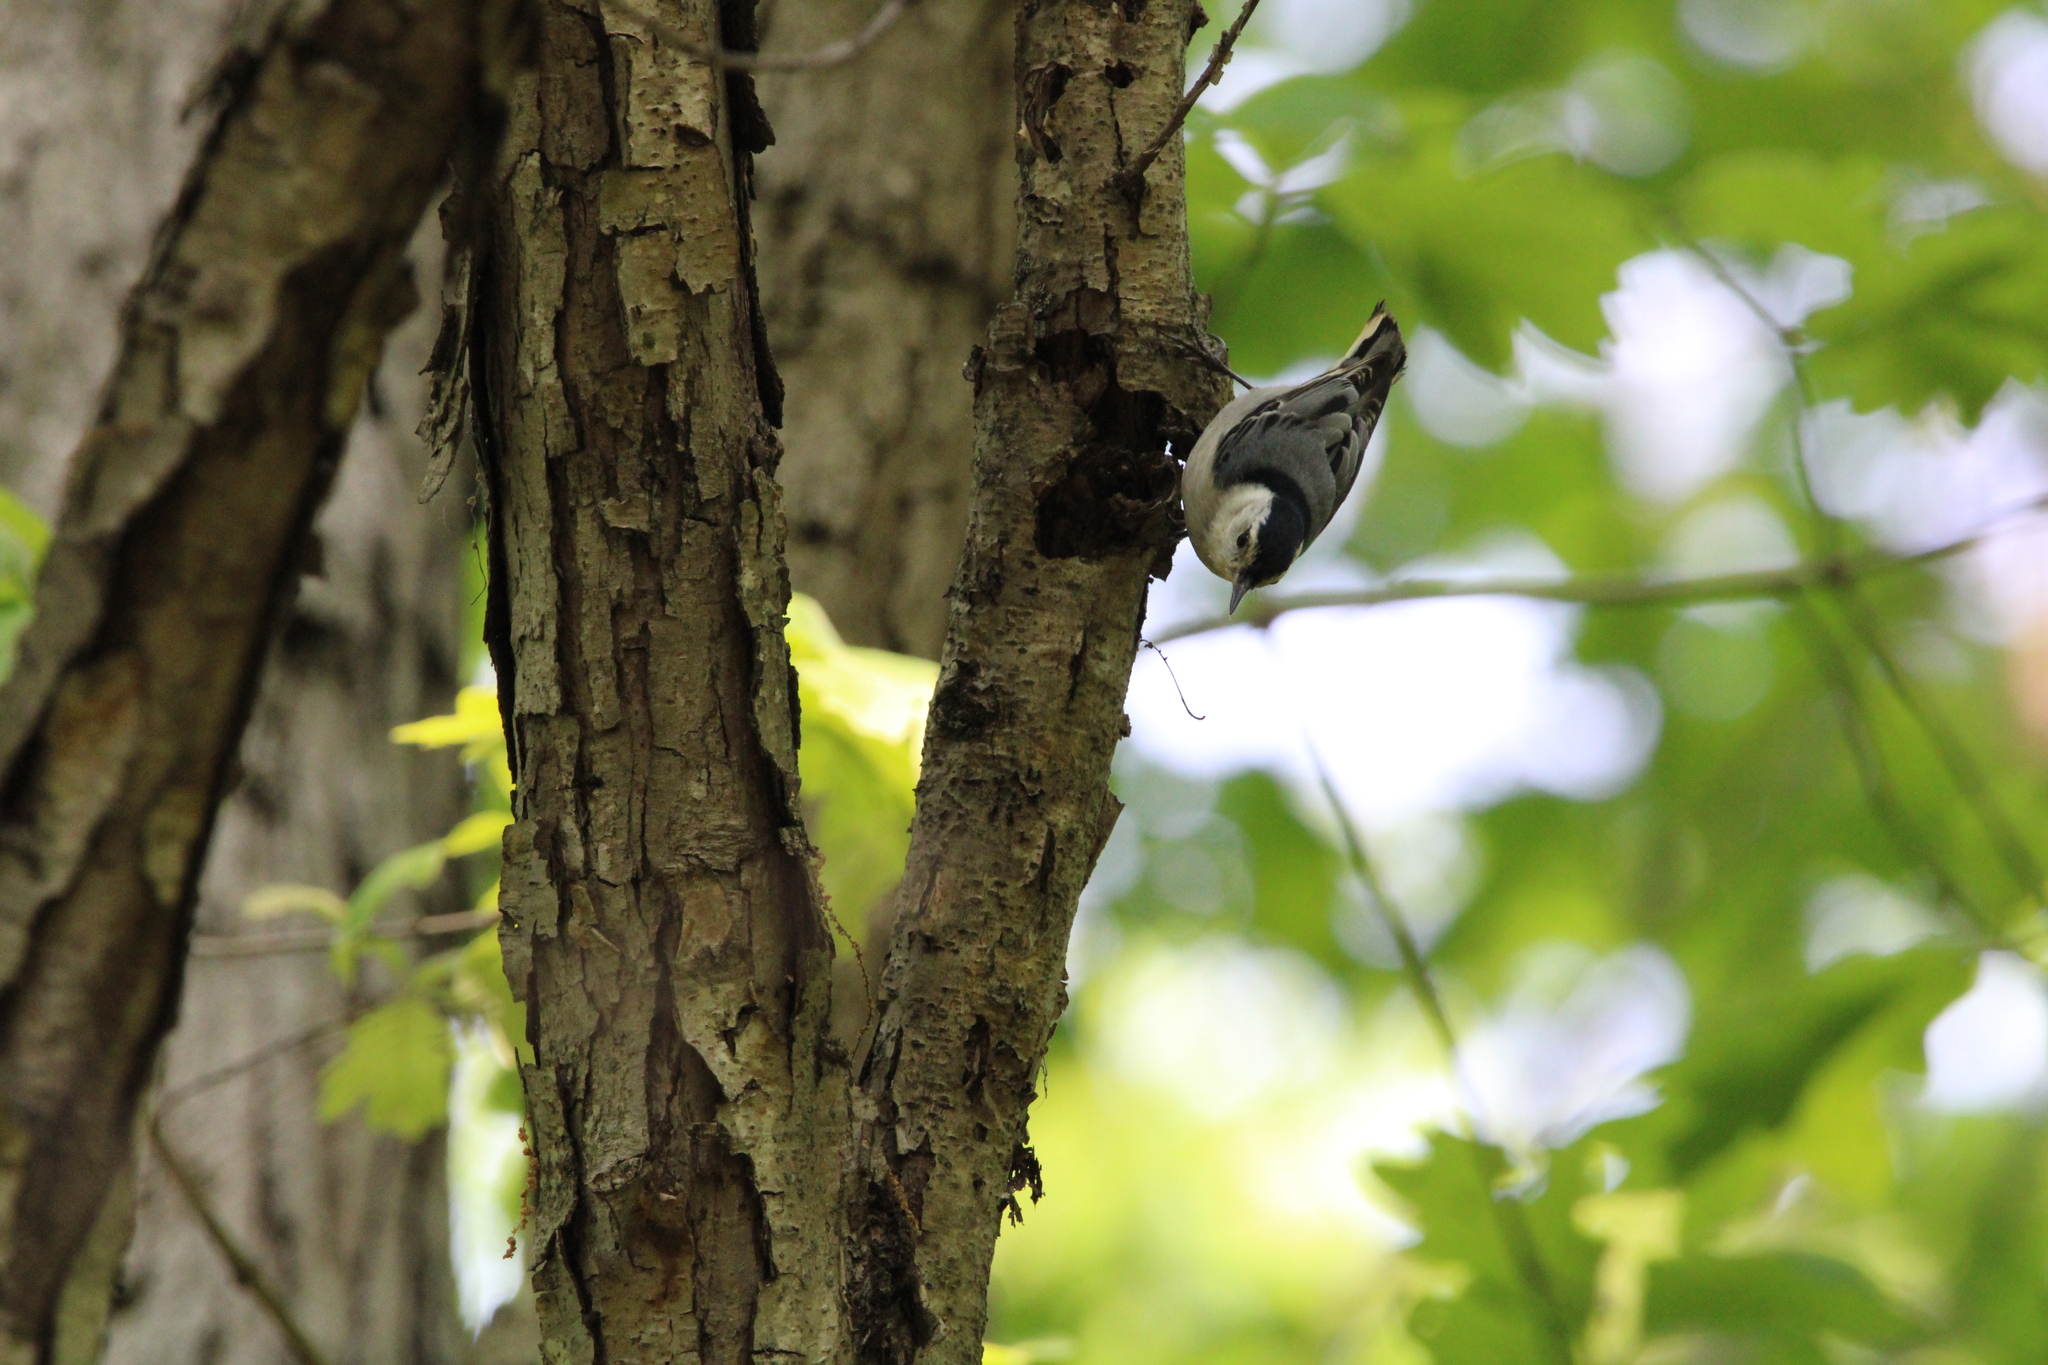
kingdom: Animalia
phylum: Chordata
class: Aves
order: Passeriformes
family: Sittidae
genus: Sitta
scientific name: Sitta carolinensis
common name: White-breasted nuthatch
